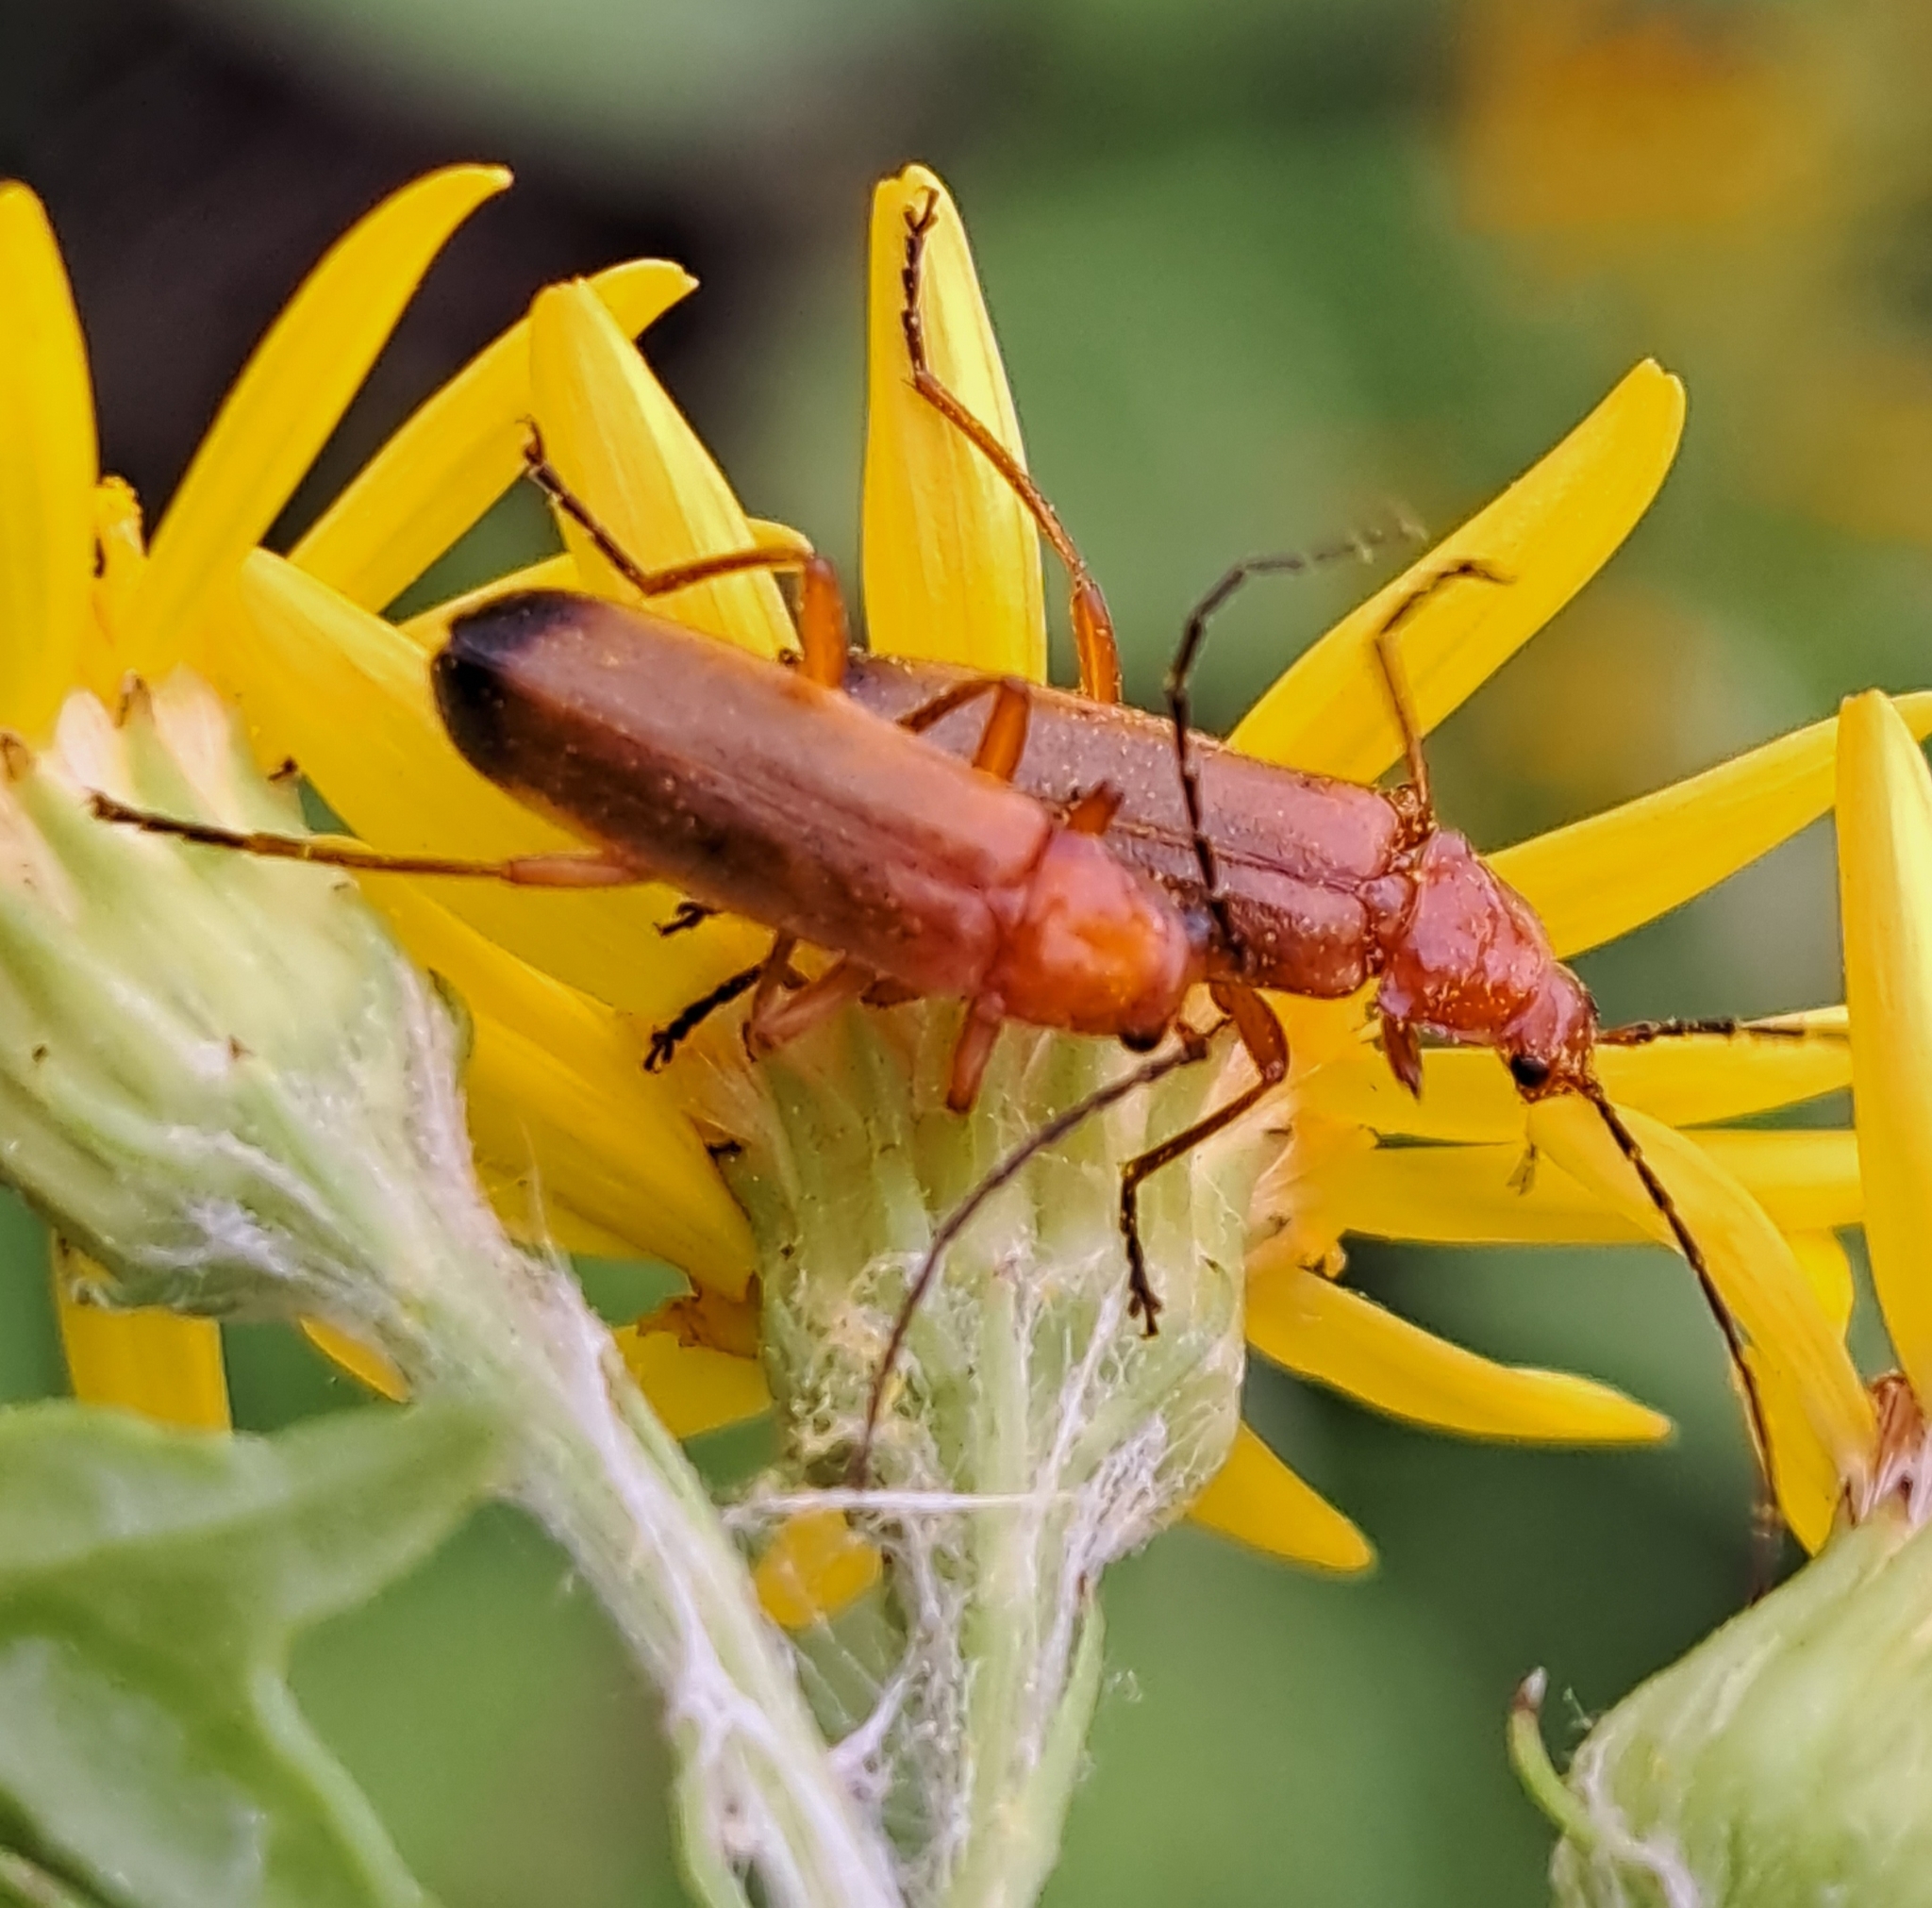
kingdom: Animalia
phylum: Arthropoda
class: Insecta
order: Coleoptera
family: Cantharidae
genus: Rhagonycha
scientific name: Rhagonycha fulva
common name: Common red soldier beetle
